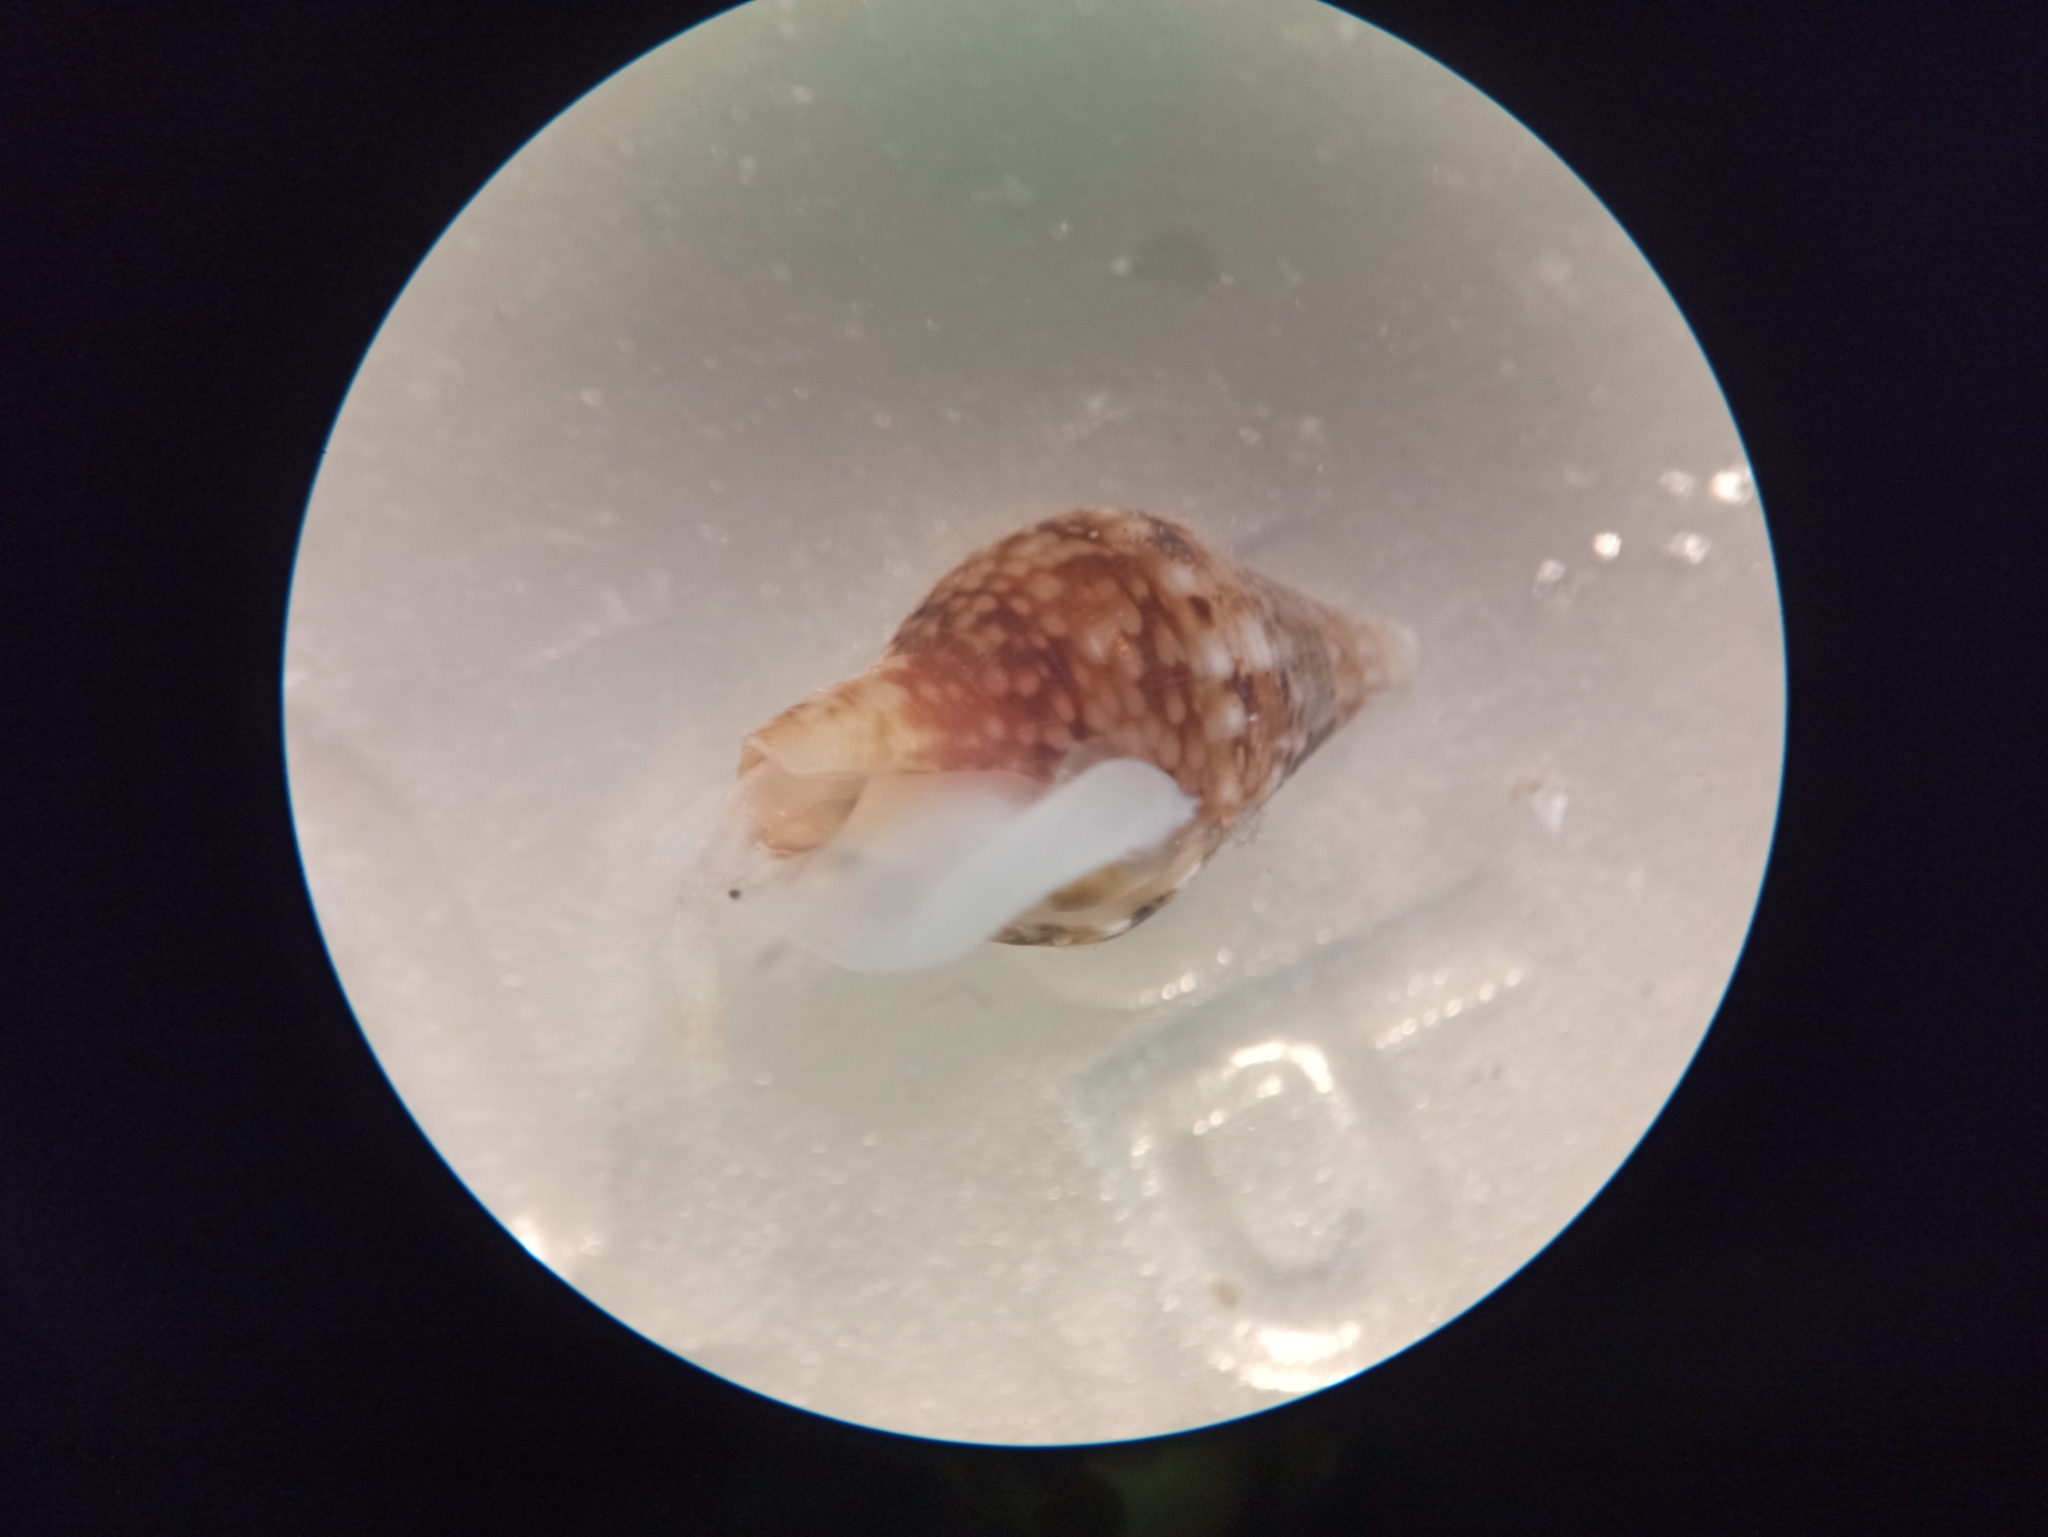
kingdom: Animalia
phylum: Mollusca
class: Gastropoda
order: Neogastropoda
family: Columbellidae
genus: Columbella
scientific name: Columbella rustica
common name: Rustic dove shell
